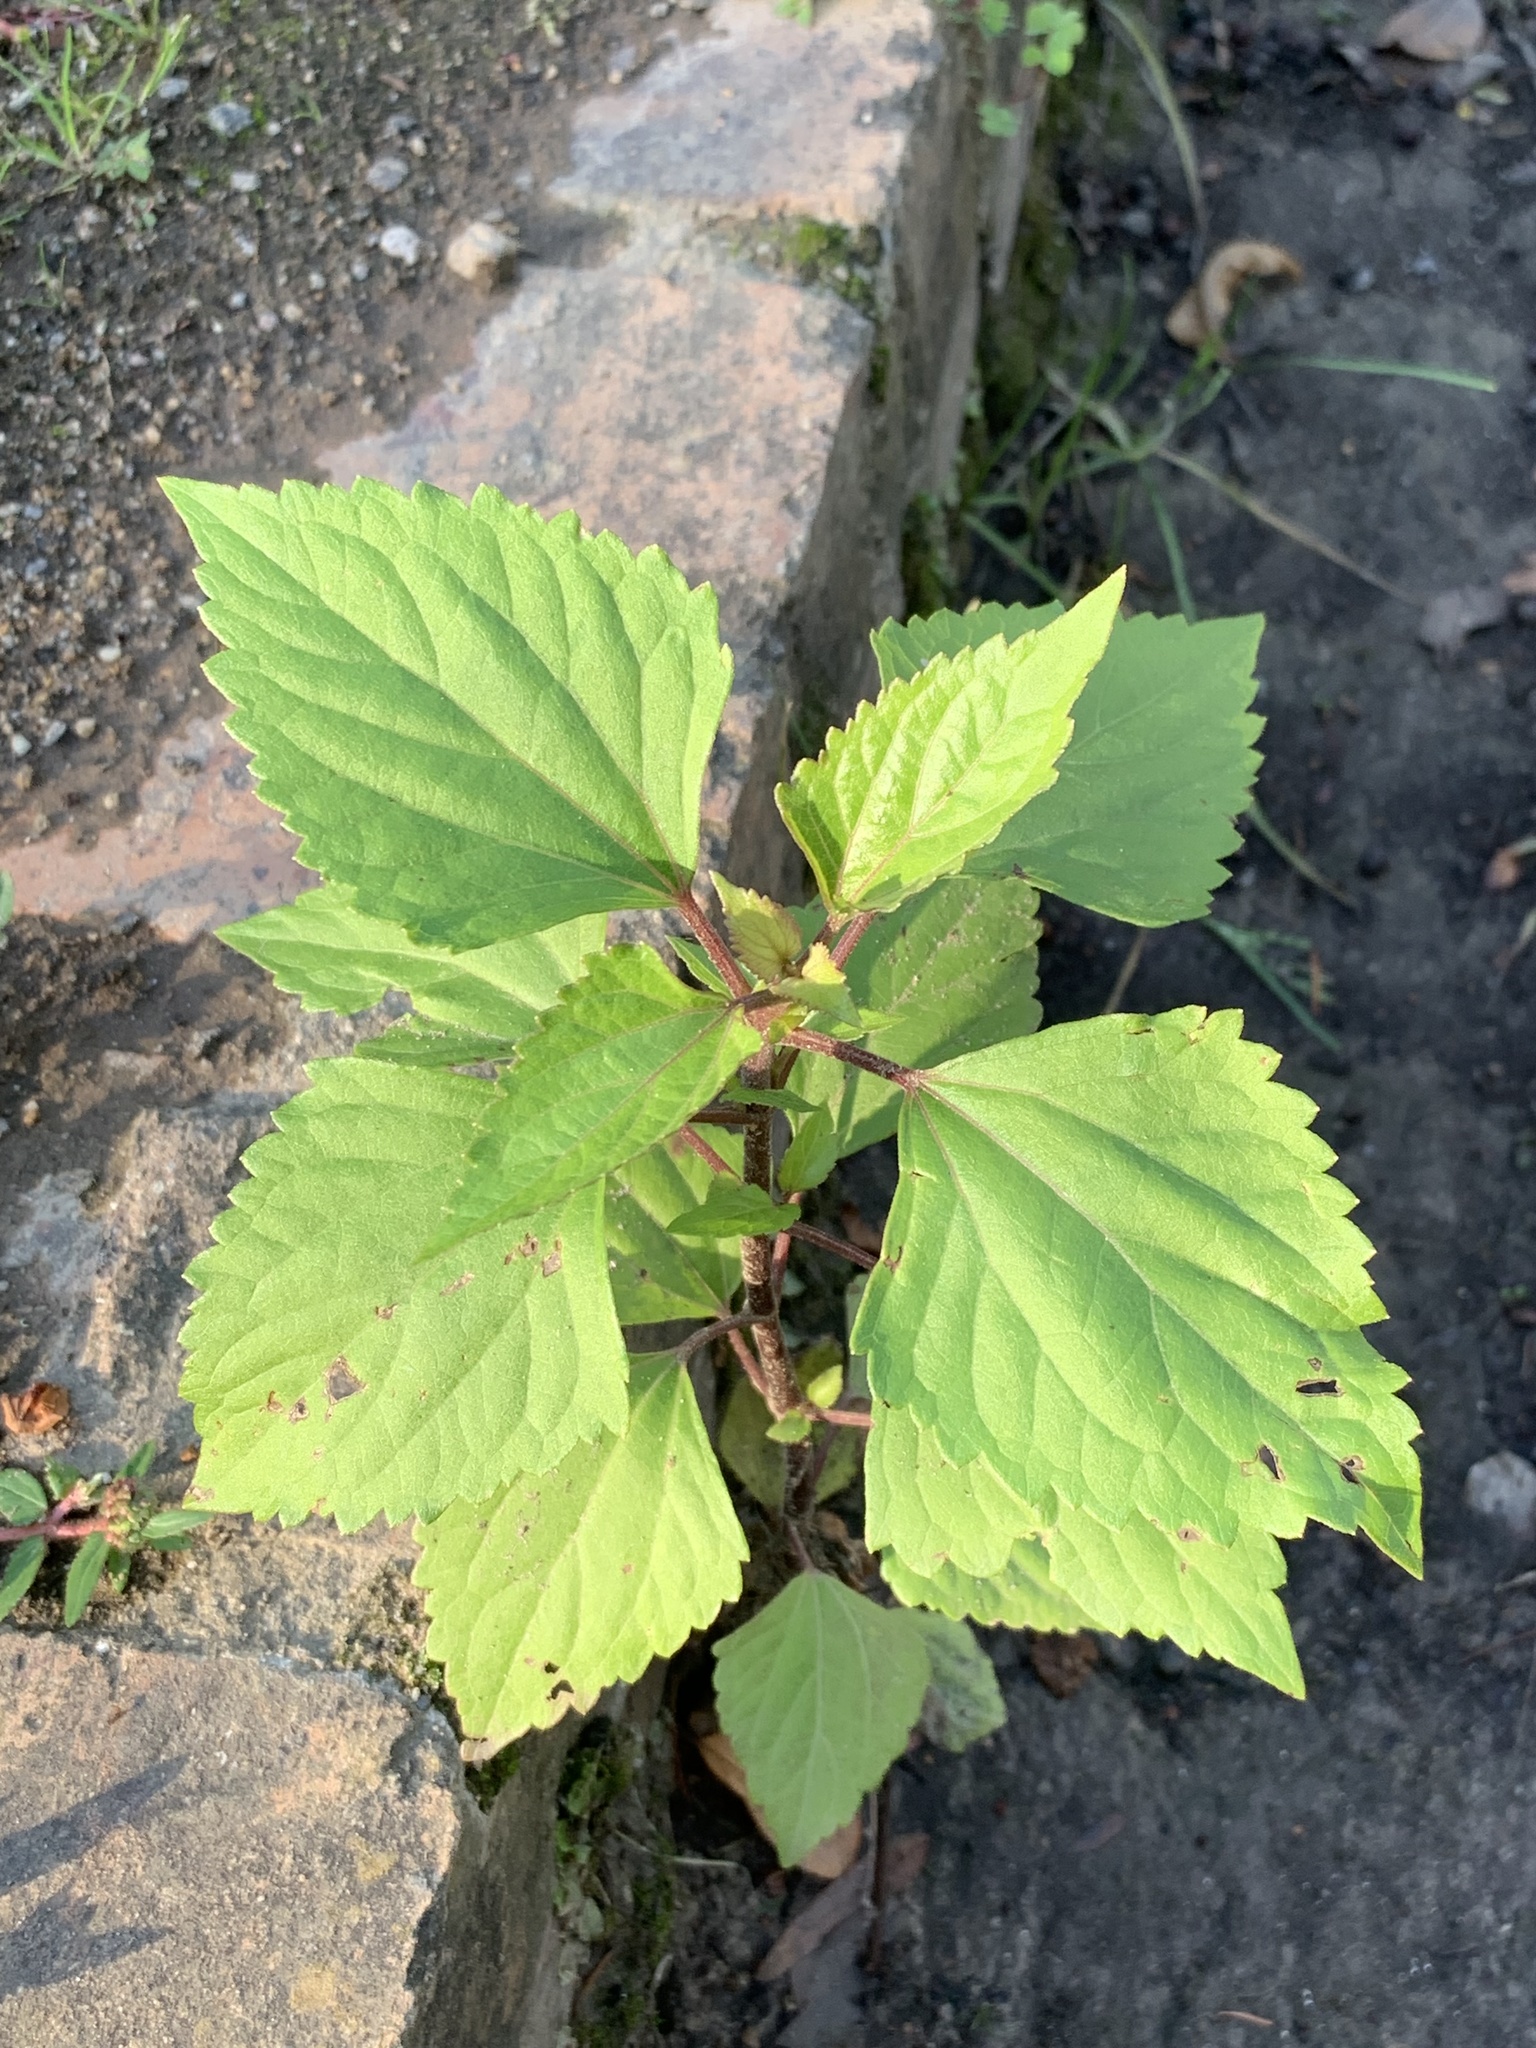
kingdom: Plantae
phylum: Tracheophyta
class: Magnoliopsida
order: Asterales
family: Asteraceae
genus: Ageratina
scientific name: Ageratina adenophora
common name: Sticky snakeroot
